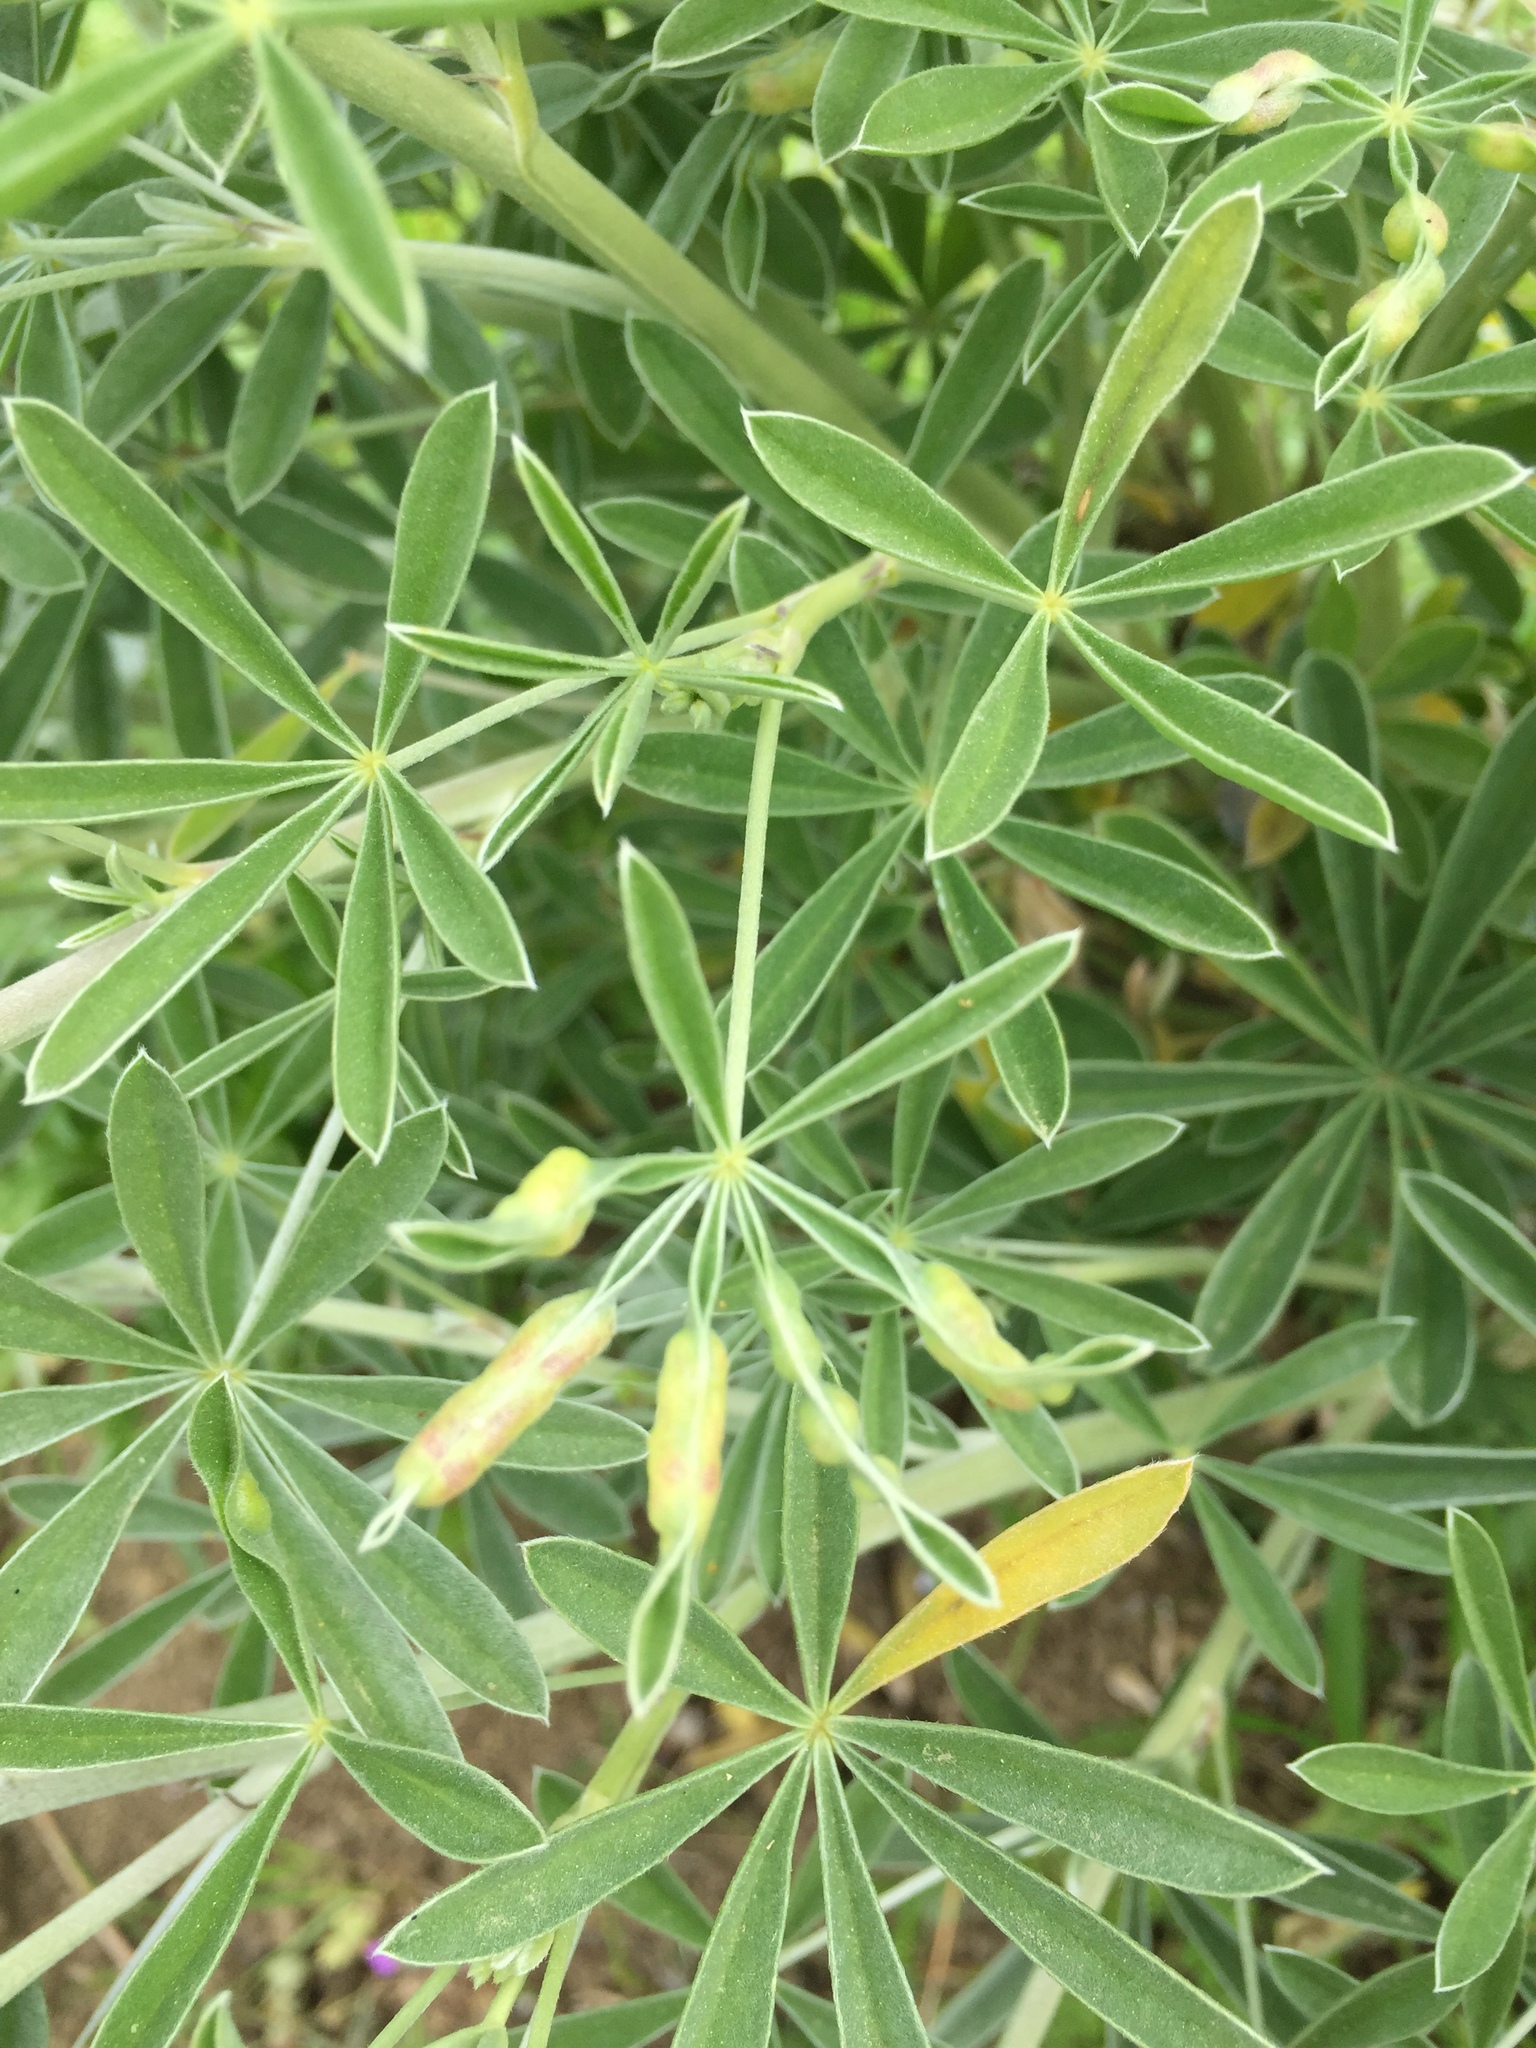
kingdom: Animalia
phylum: Arthropoda
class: Insecta
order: Diptera
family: Cecidomyiidae
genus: Dasineura
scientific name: Dasineura lupinorum
